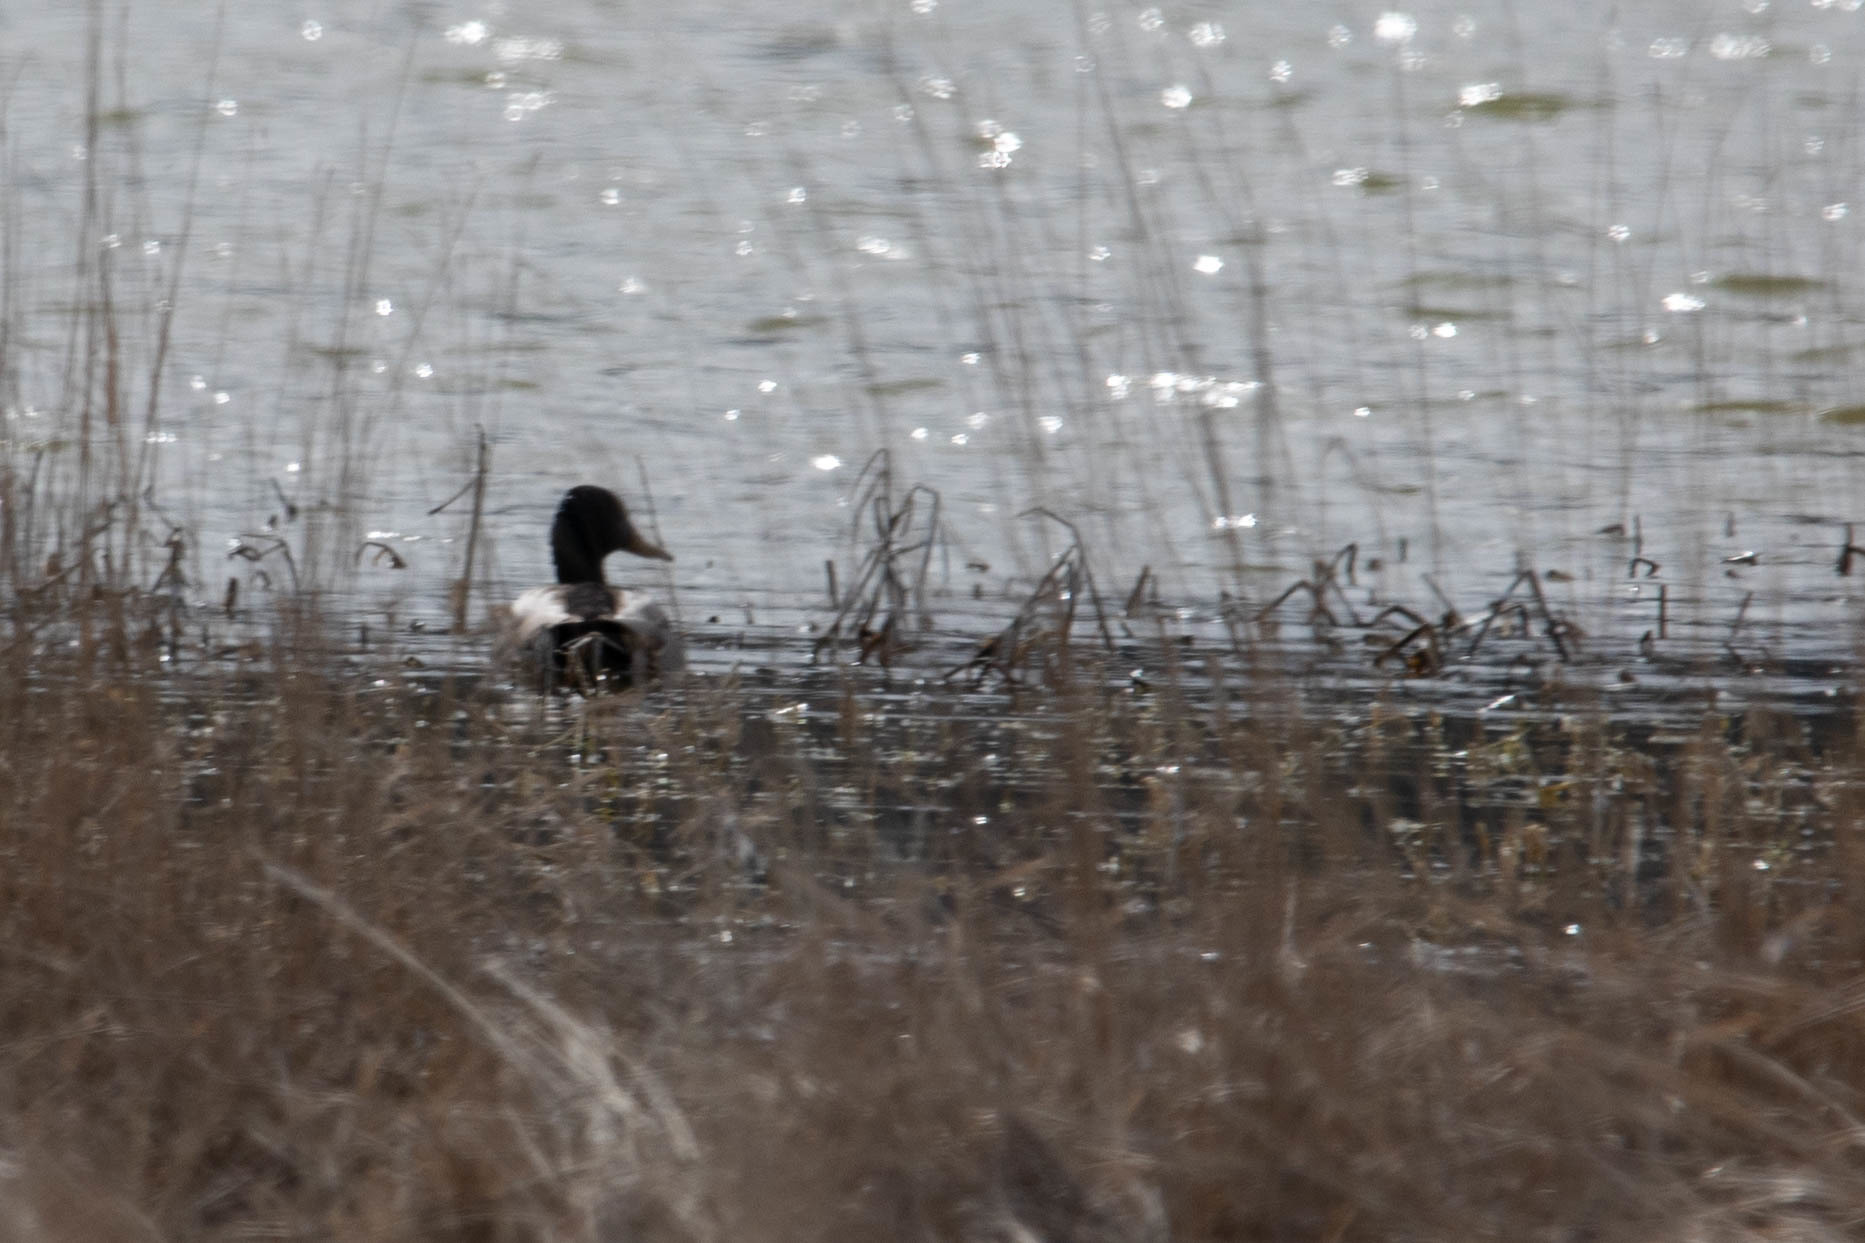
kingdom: Animalia
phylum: Chordata
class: Aves
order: Anseriformes
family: Anatidae
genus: Anas
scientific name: Anas platyrhynchos
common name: Mallard
